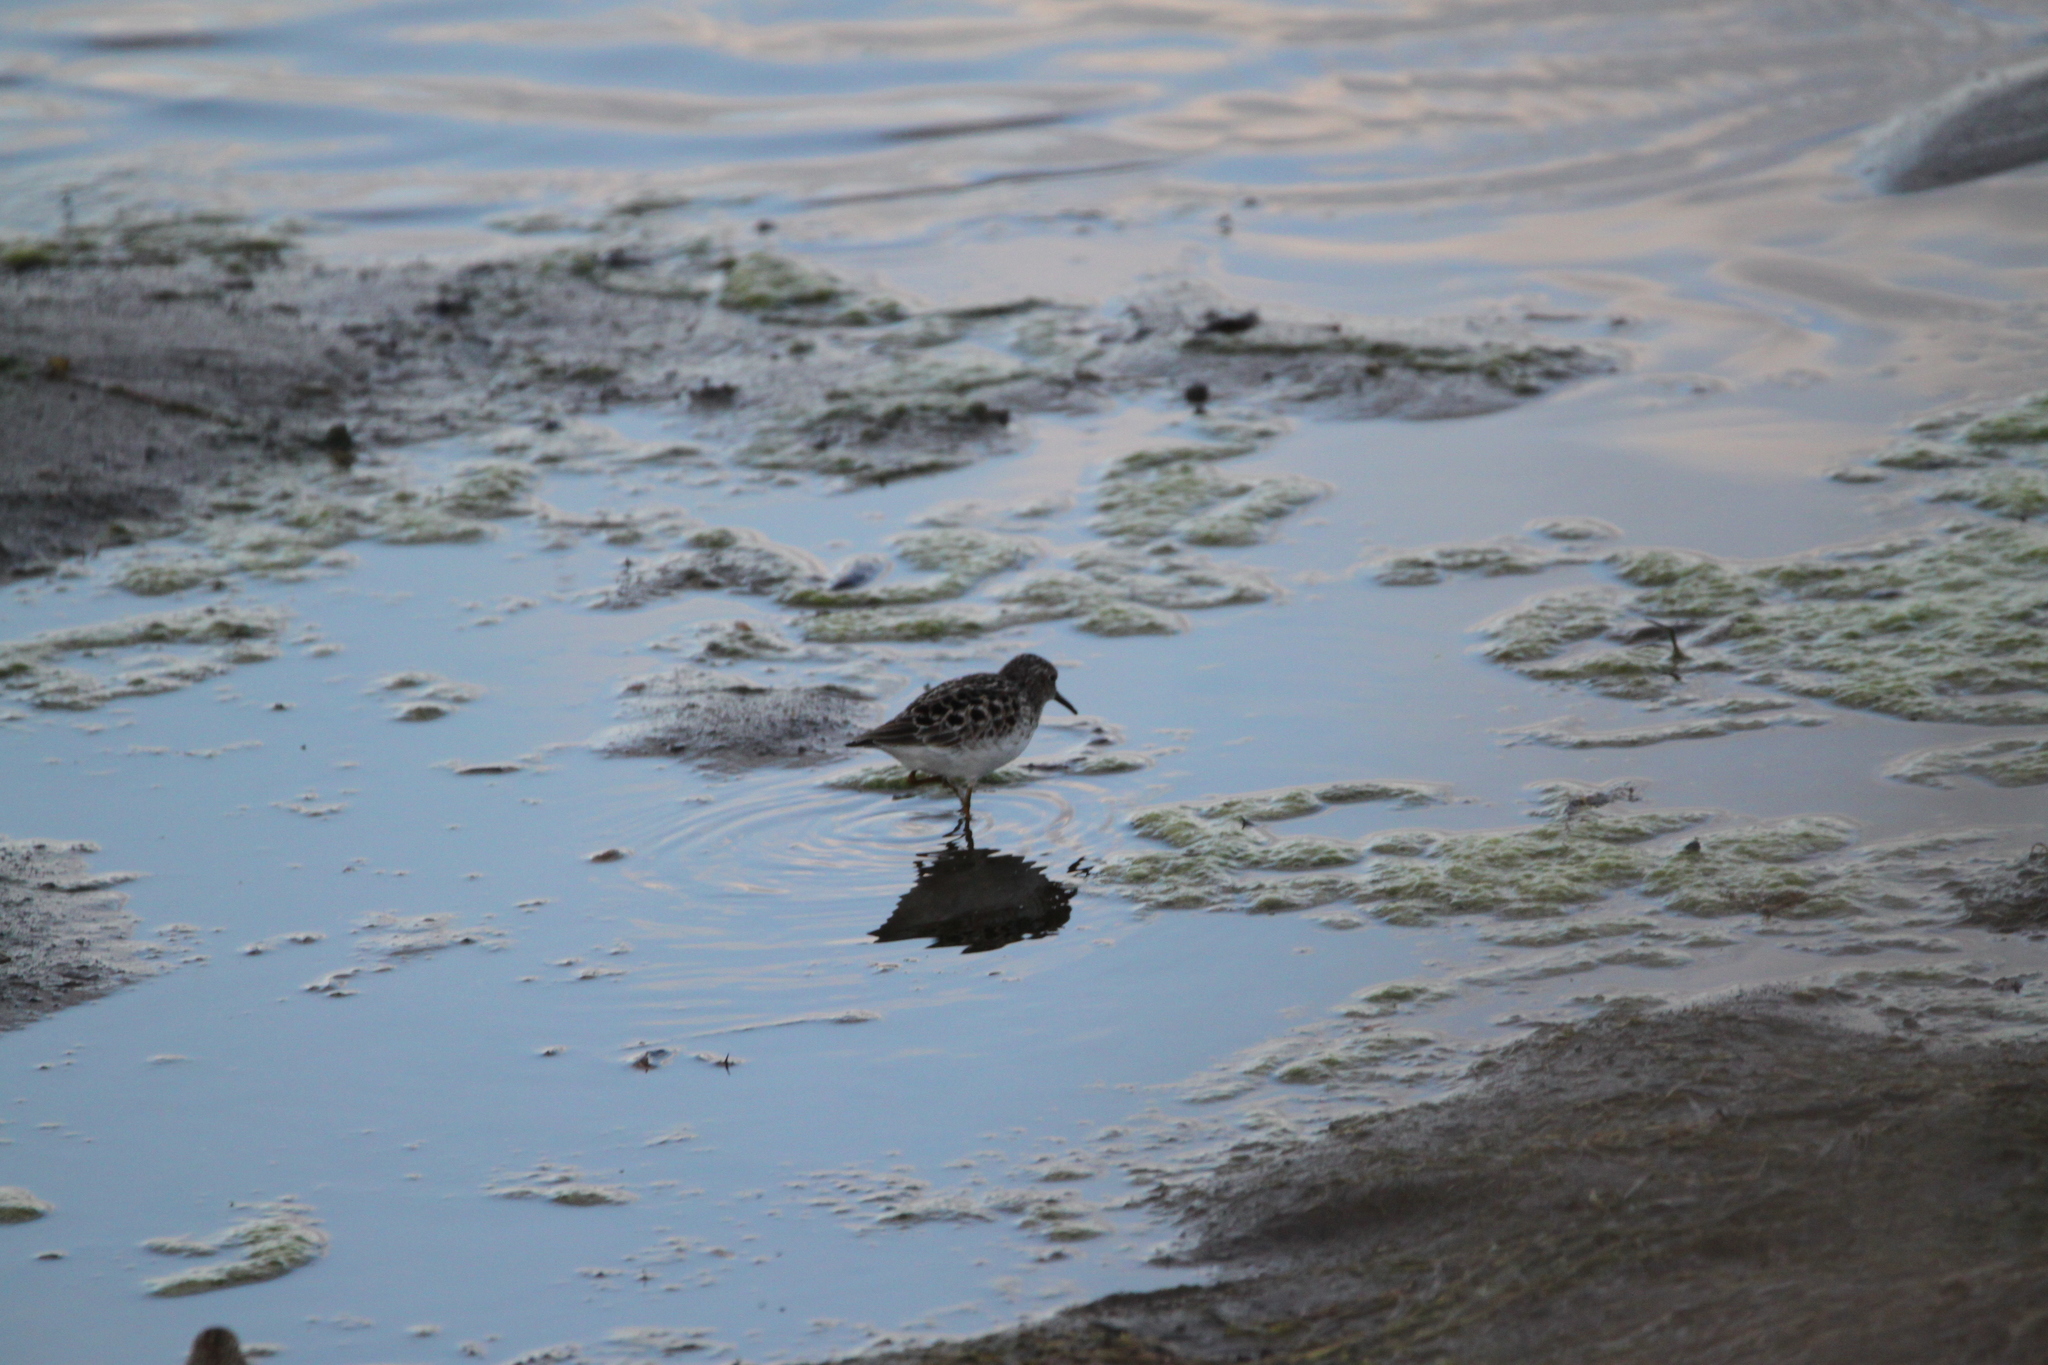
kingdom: Animalia
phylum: Chordata
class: Aves
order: Charadriiformes
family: Scolopacidae
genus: Calidris
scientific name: Calidris minutilla
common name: Least sandpiper
